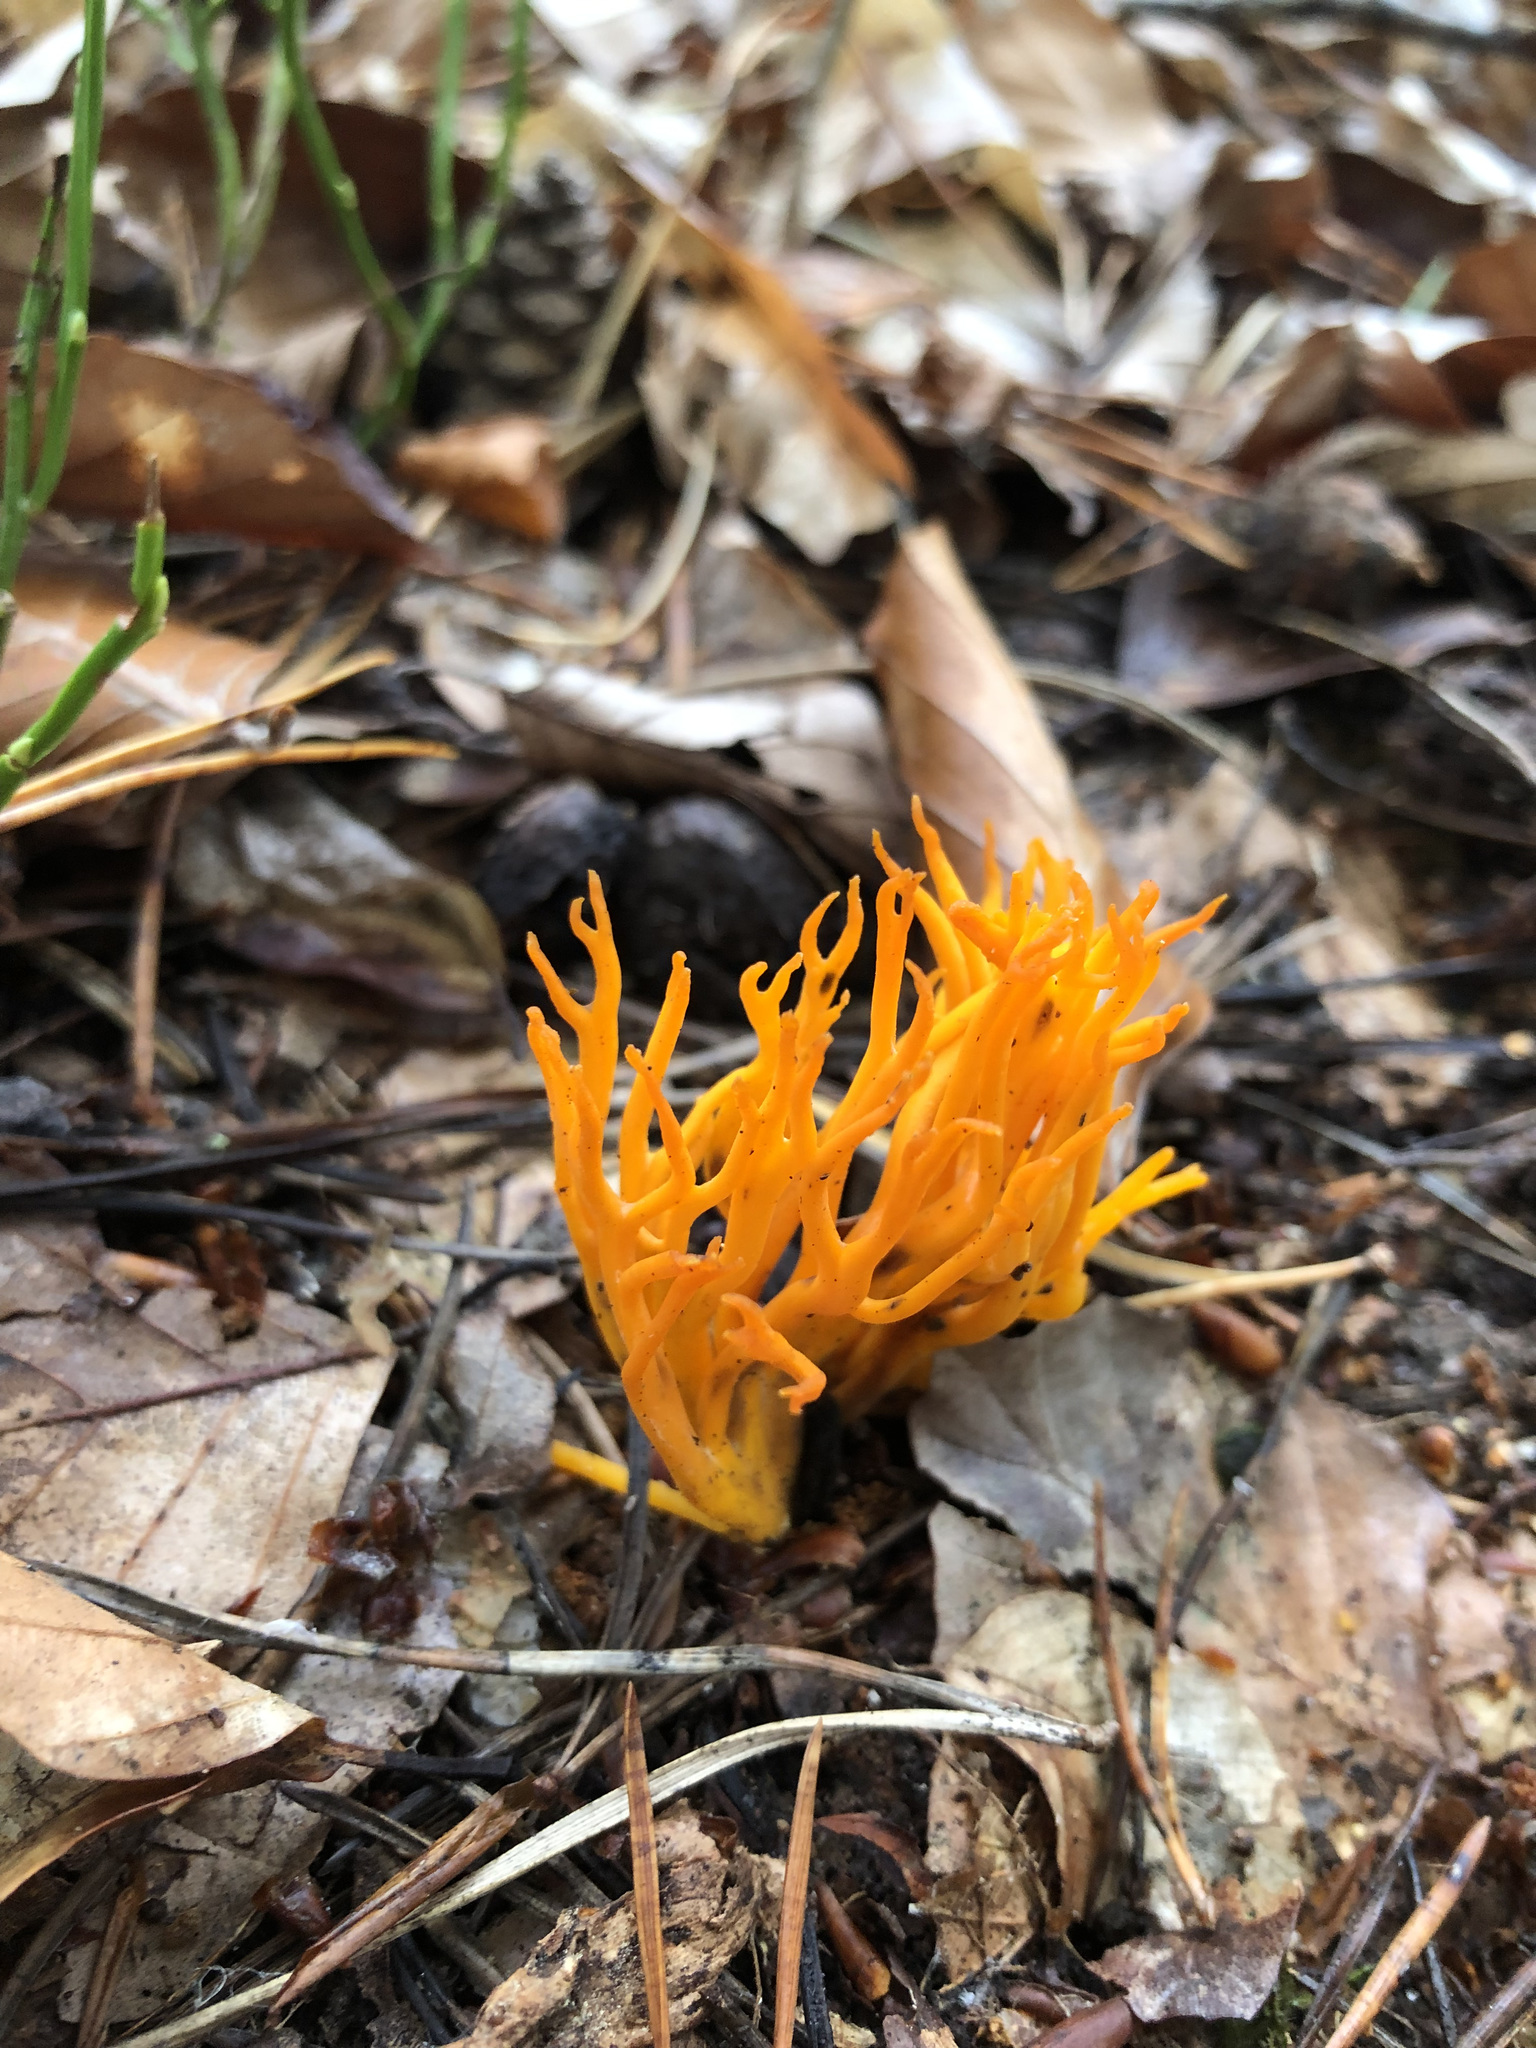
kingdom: Fungi
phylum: Basidiomycota
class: Dacrymycetes
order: Dacrymycetales
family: Dacrymycetaceae
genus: Calocera
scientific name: Calocera viscosa
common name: Yellow stagshorn
